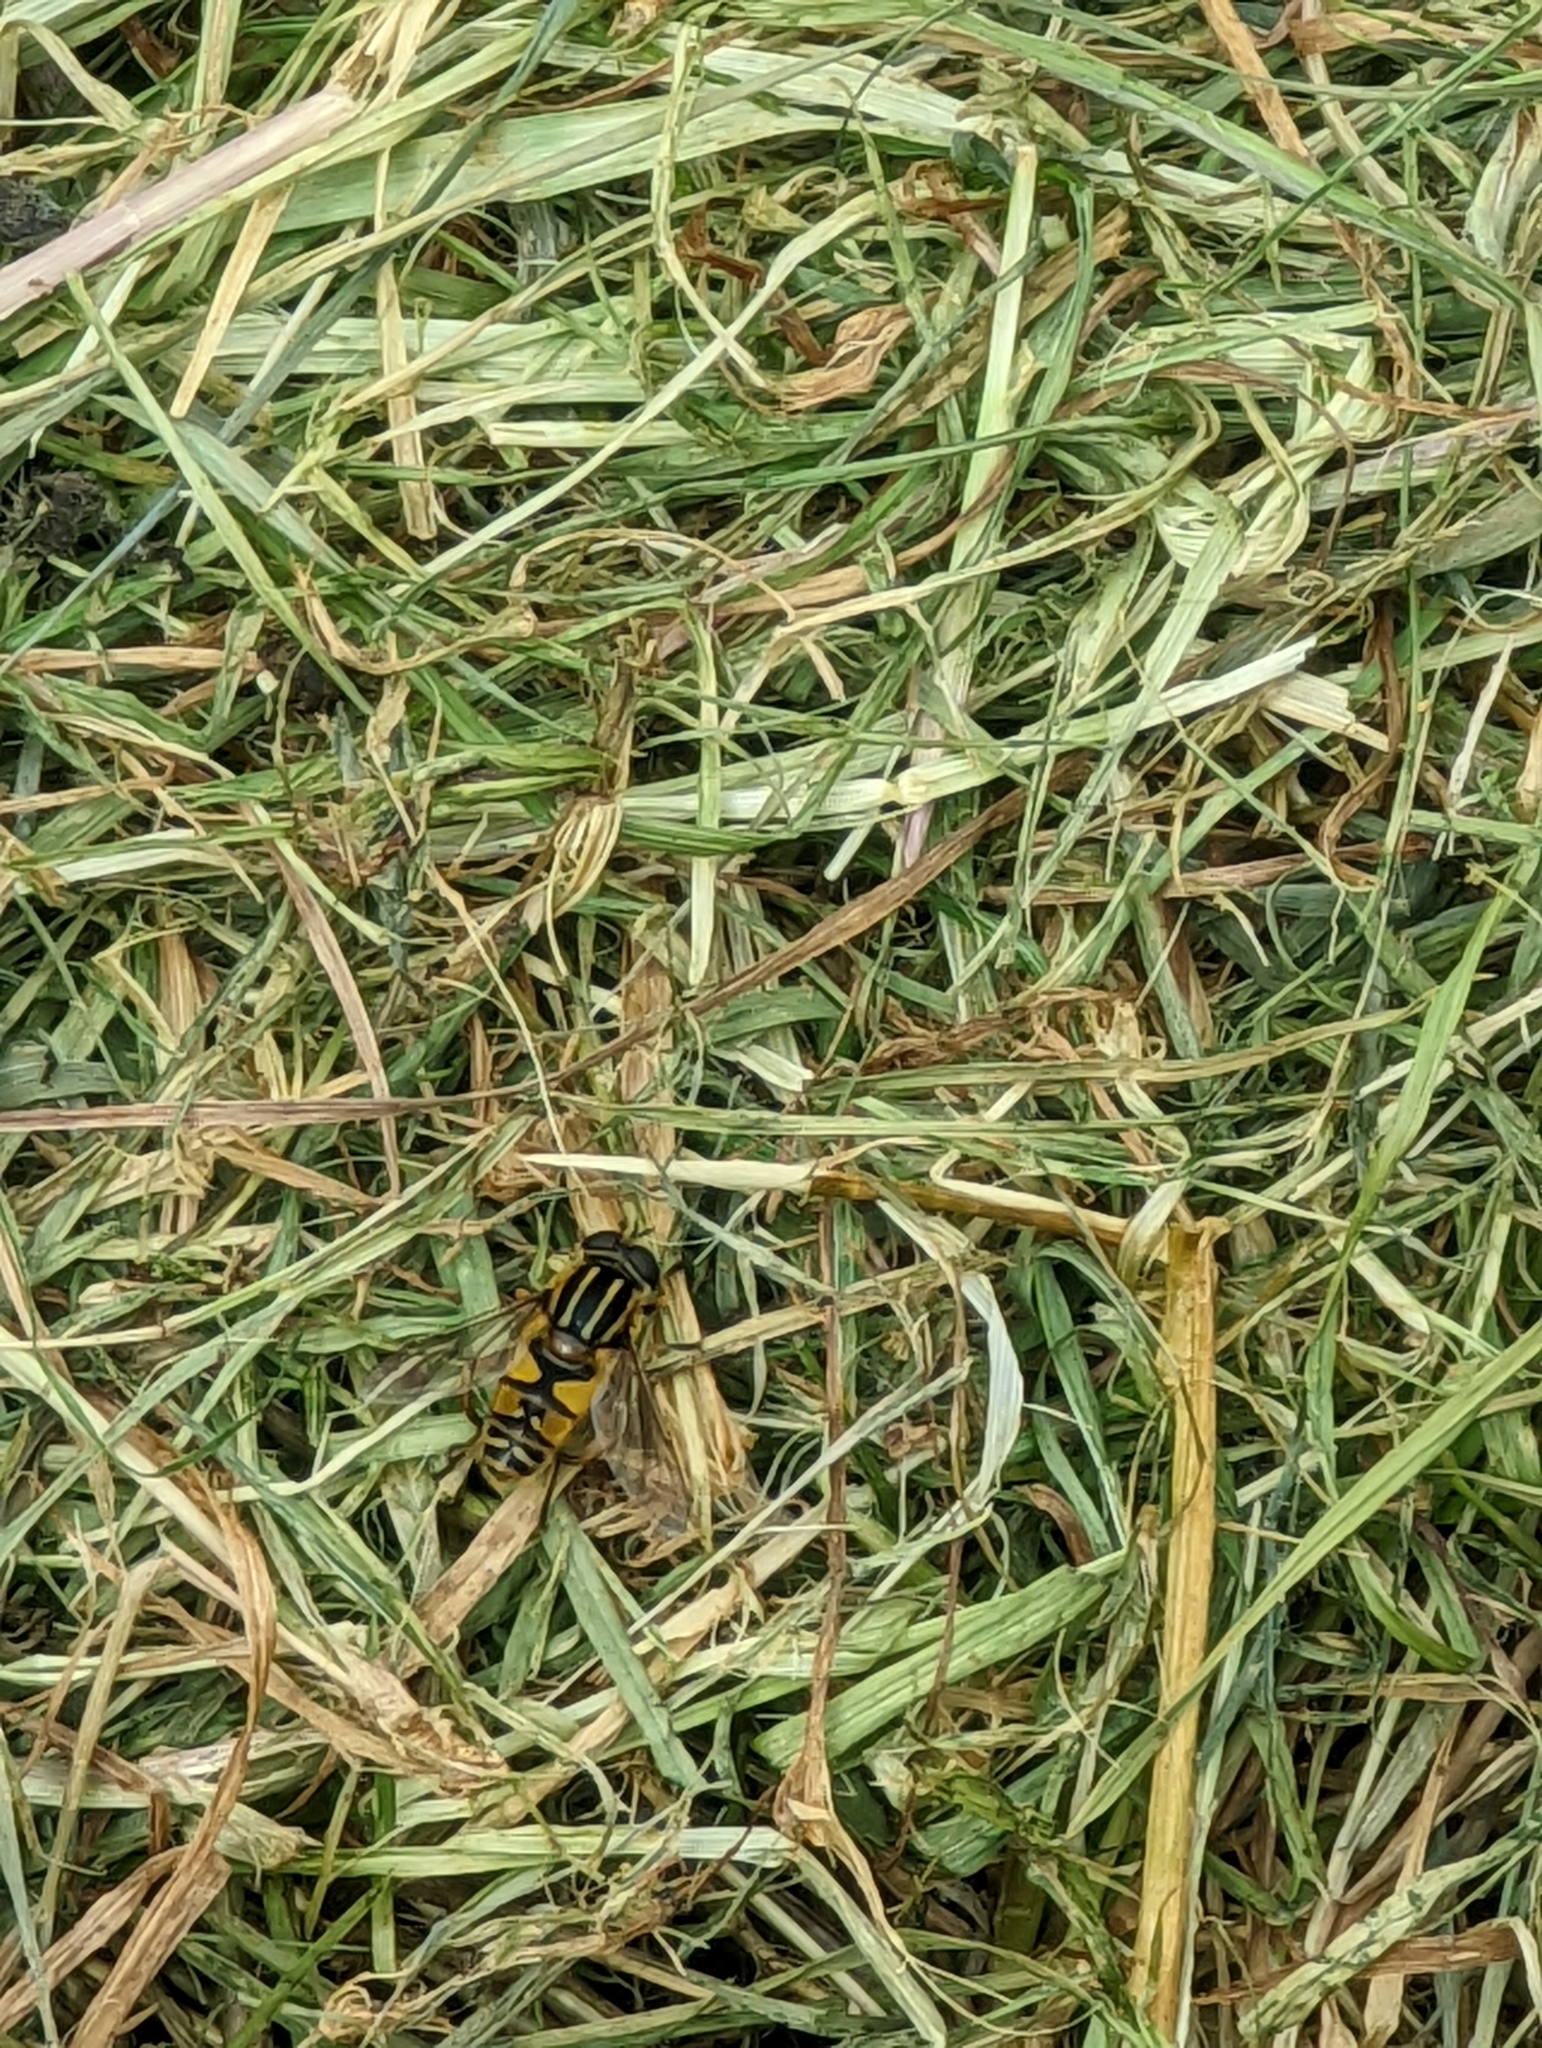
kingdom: Animalia
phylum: Arthropoda
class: Insecta
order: Diptera
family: Syrphidae
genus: Helophilus
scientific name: Helophilus pendulus
